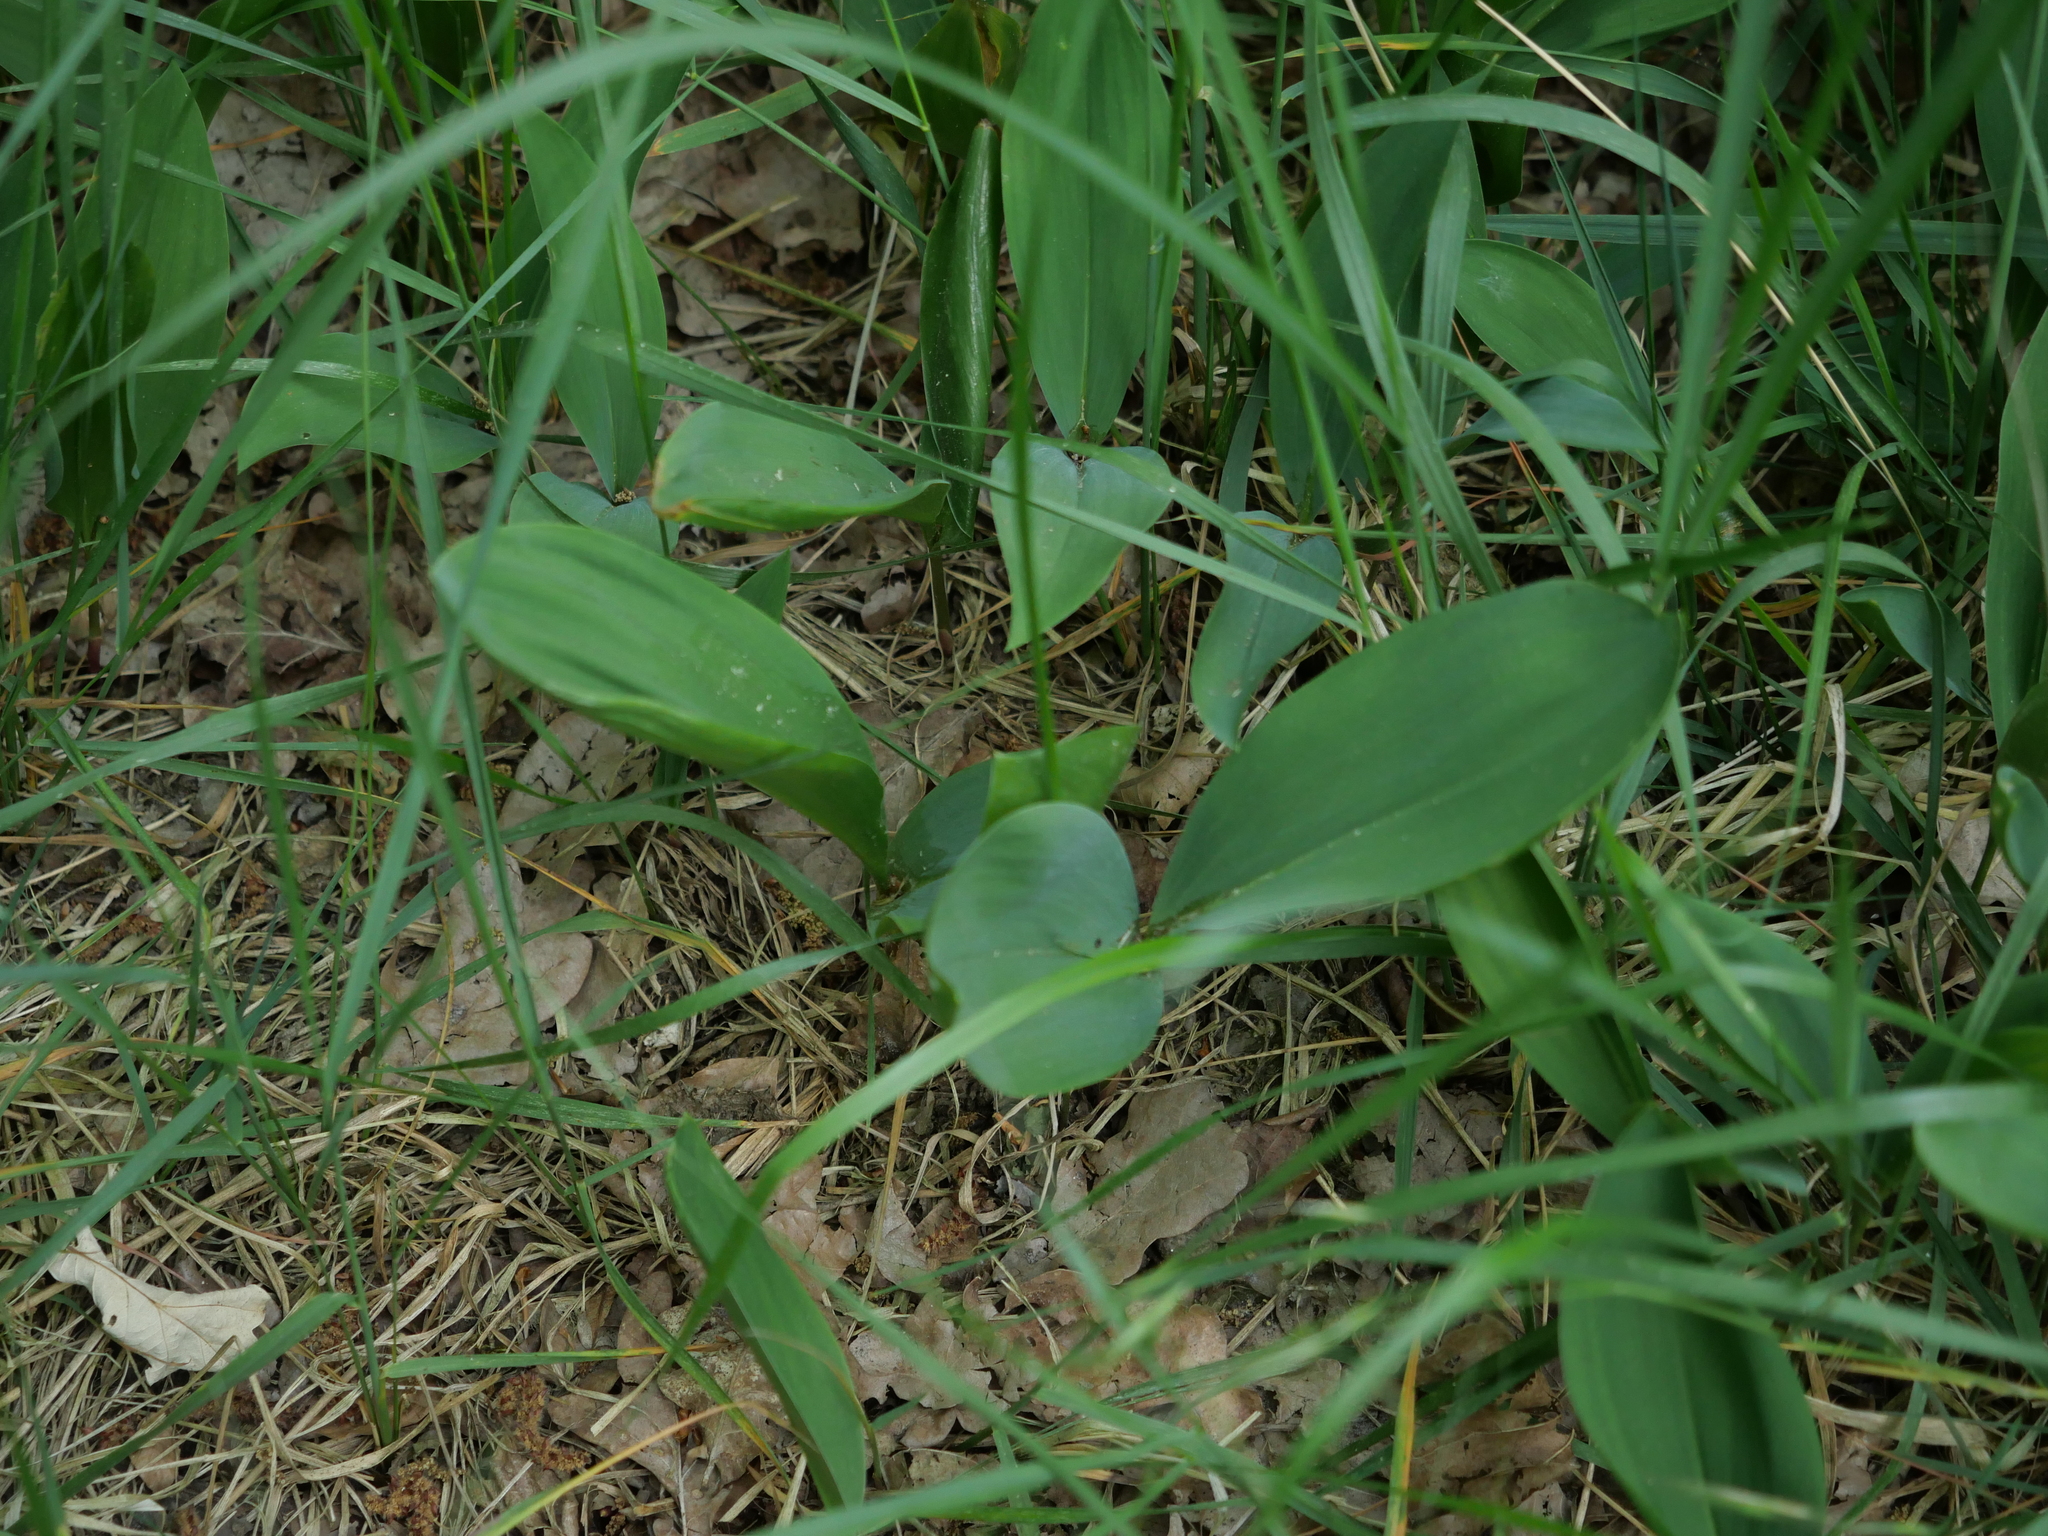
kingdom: Plantae
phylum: Tracheophyta
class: Liliopsida
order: Asparagales
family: Asparagaceae
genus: Convallaria
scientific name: Convallaria majalis
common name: Lily-of-the-valley
